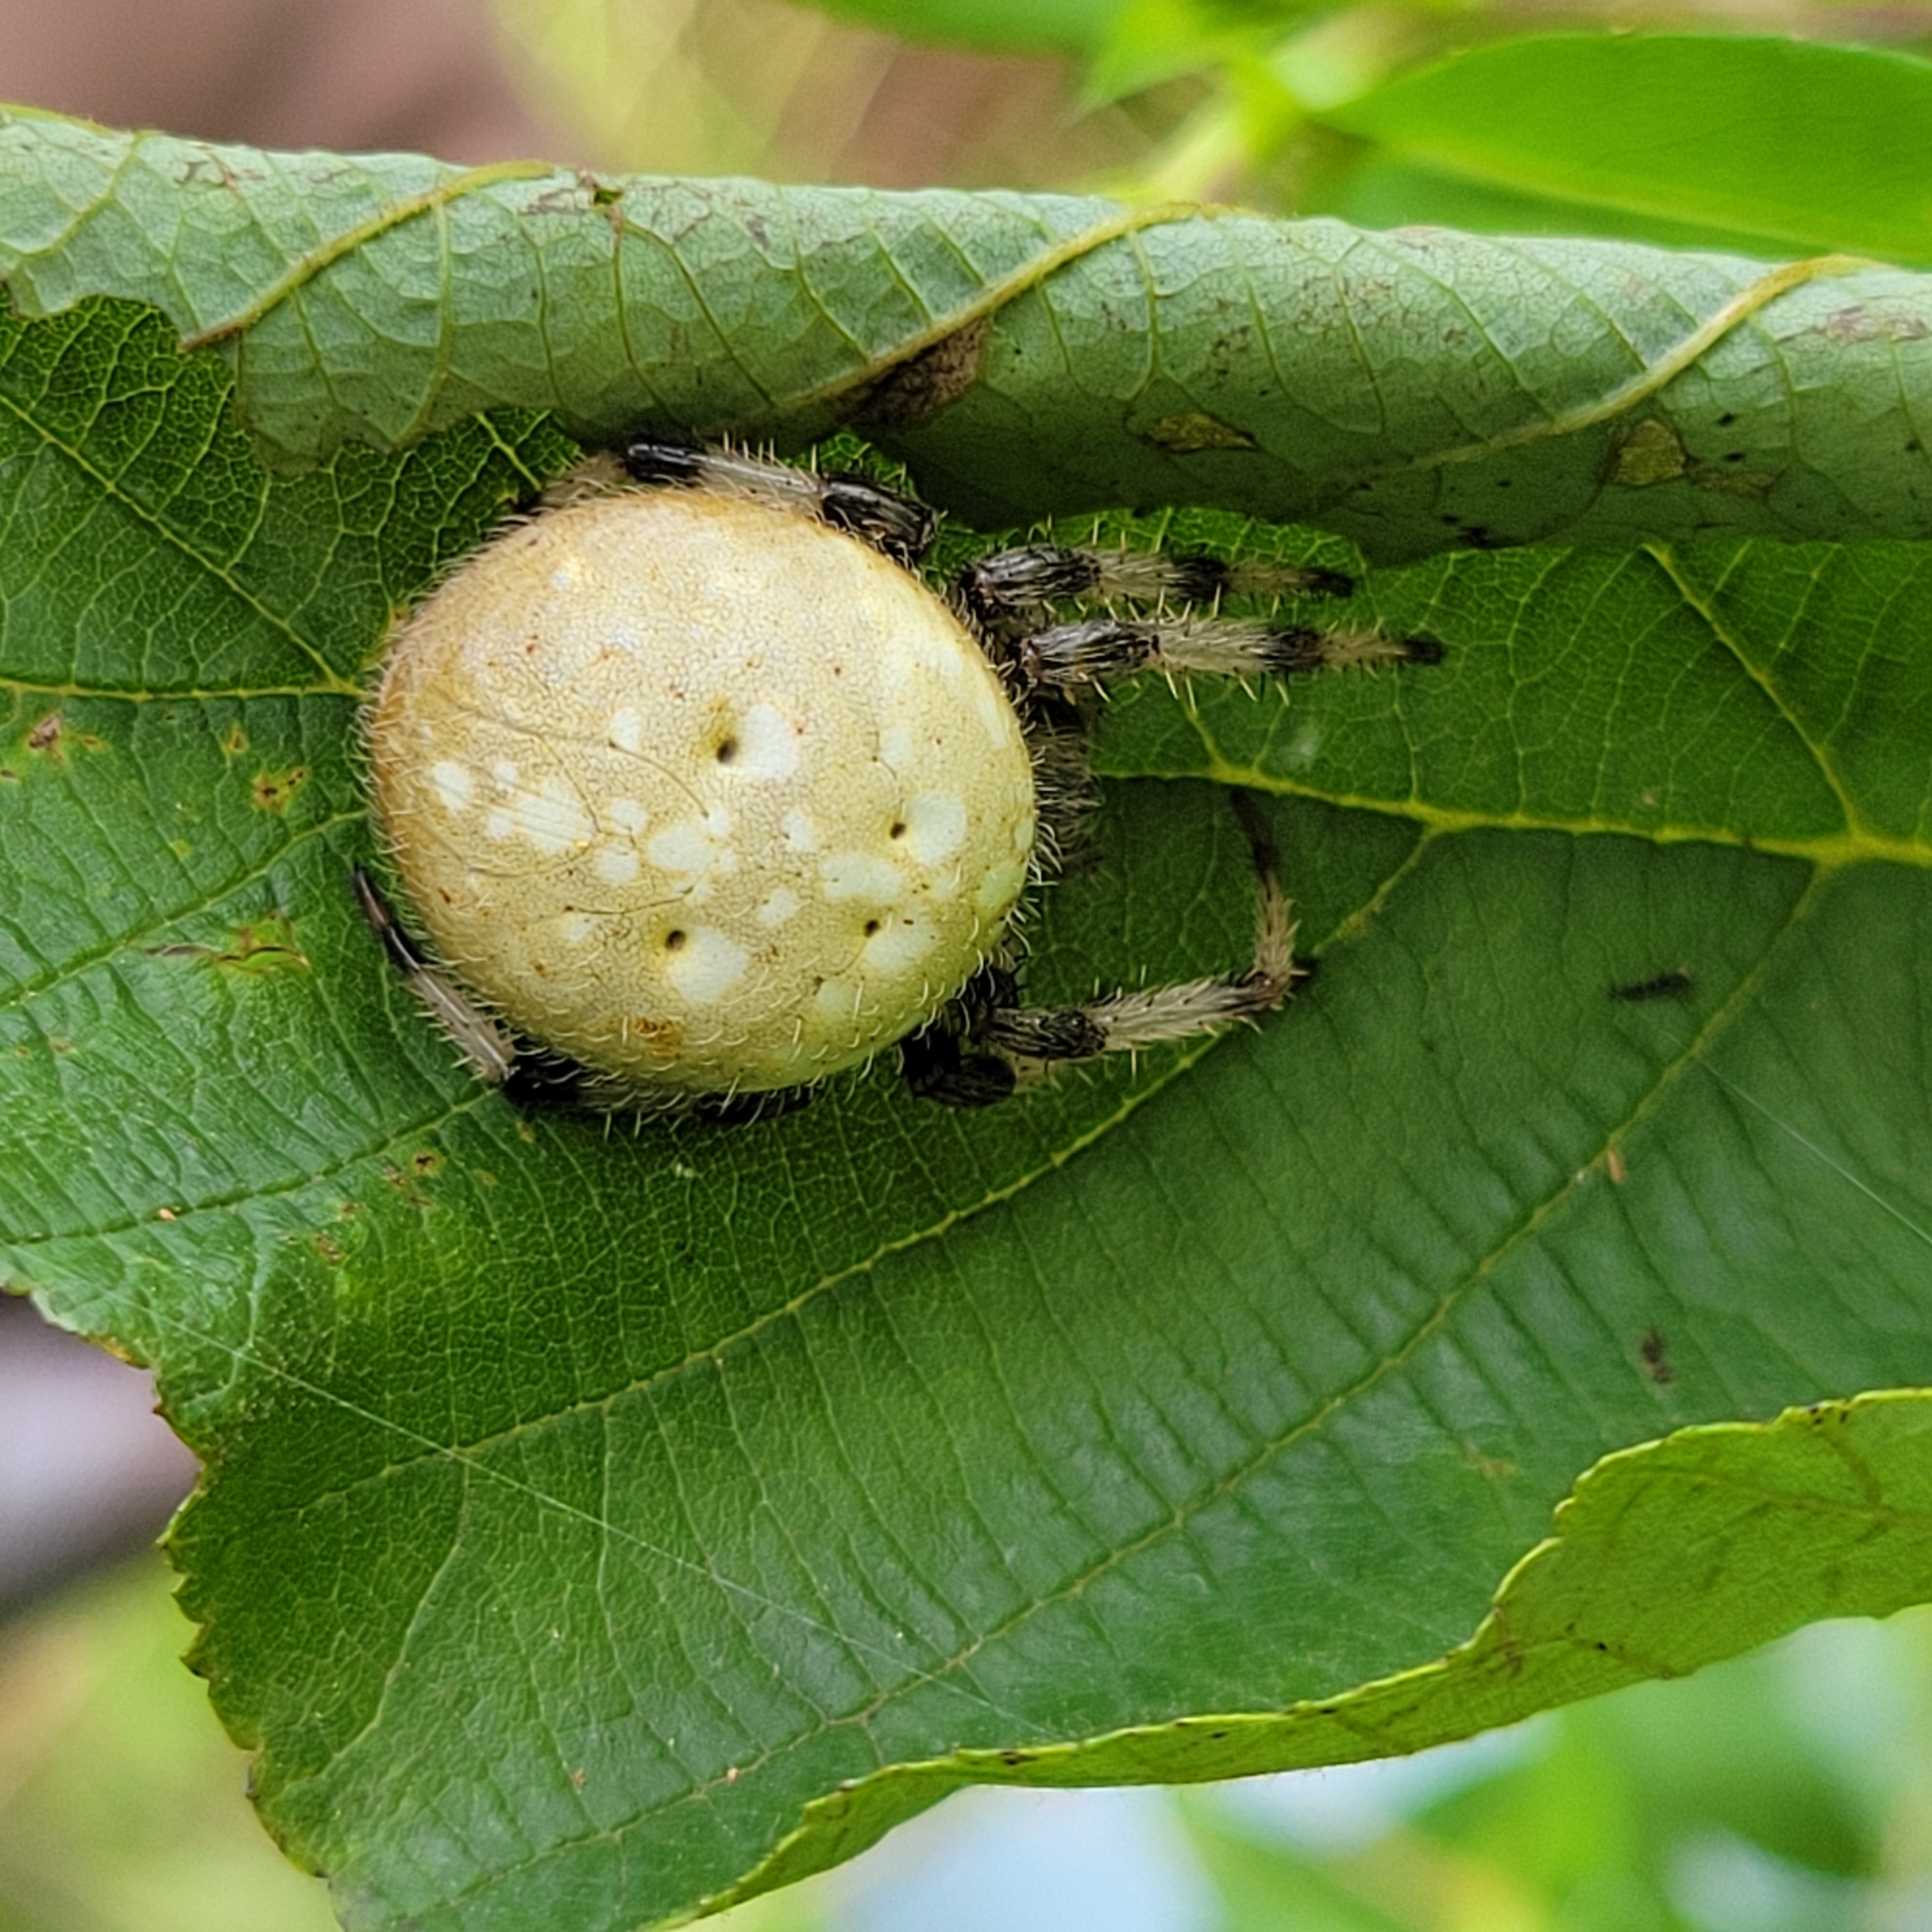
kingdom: Animalia
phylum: Arthropoda
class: Arachnida
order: Araneae
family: Araneidae
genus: Araneus
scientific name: Araneus trifolium
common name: Shamrock orbweaver
